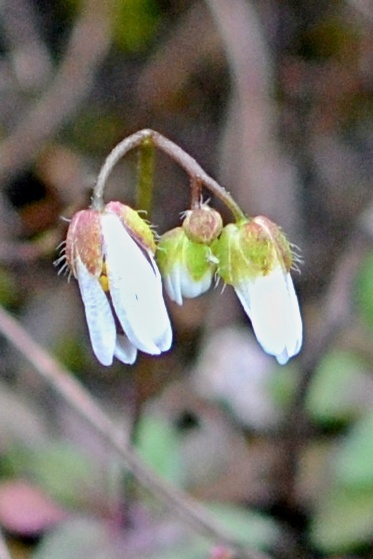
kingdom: Plantae
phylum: Tracheophyta
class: Magnoliopsida
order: Brassicales
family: Brassicaceae
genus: Draba
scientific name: Draba verna
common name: Spring draba
